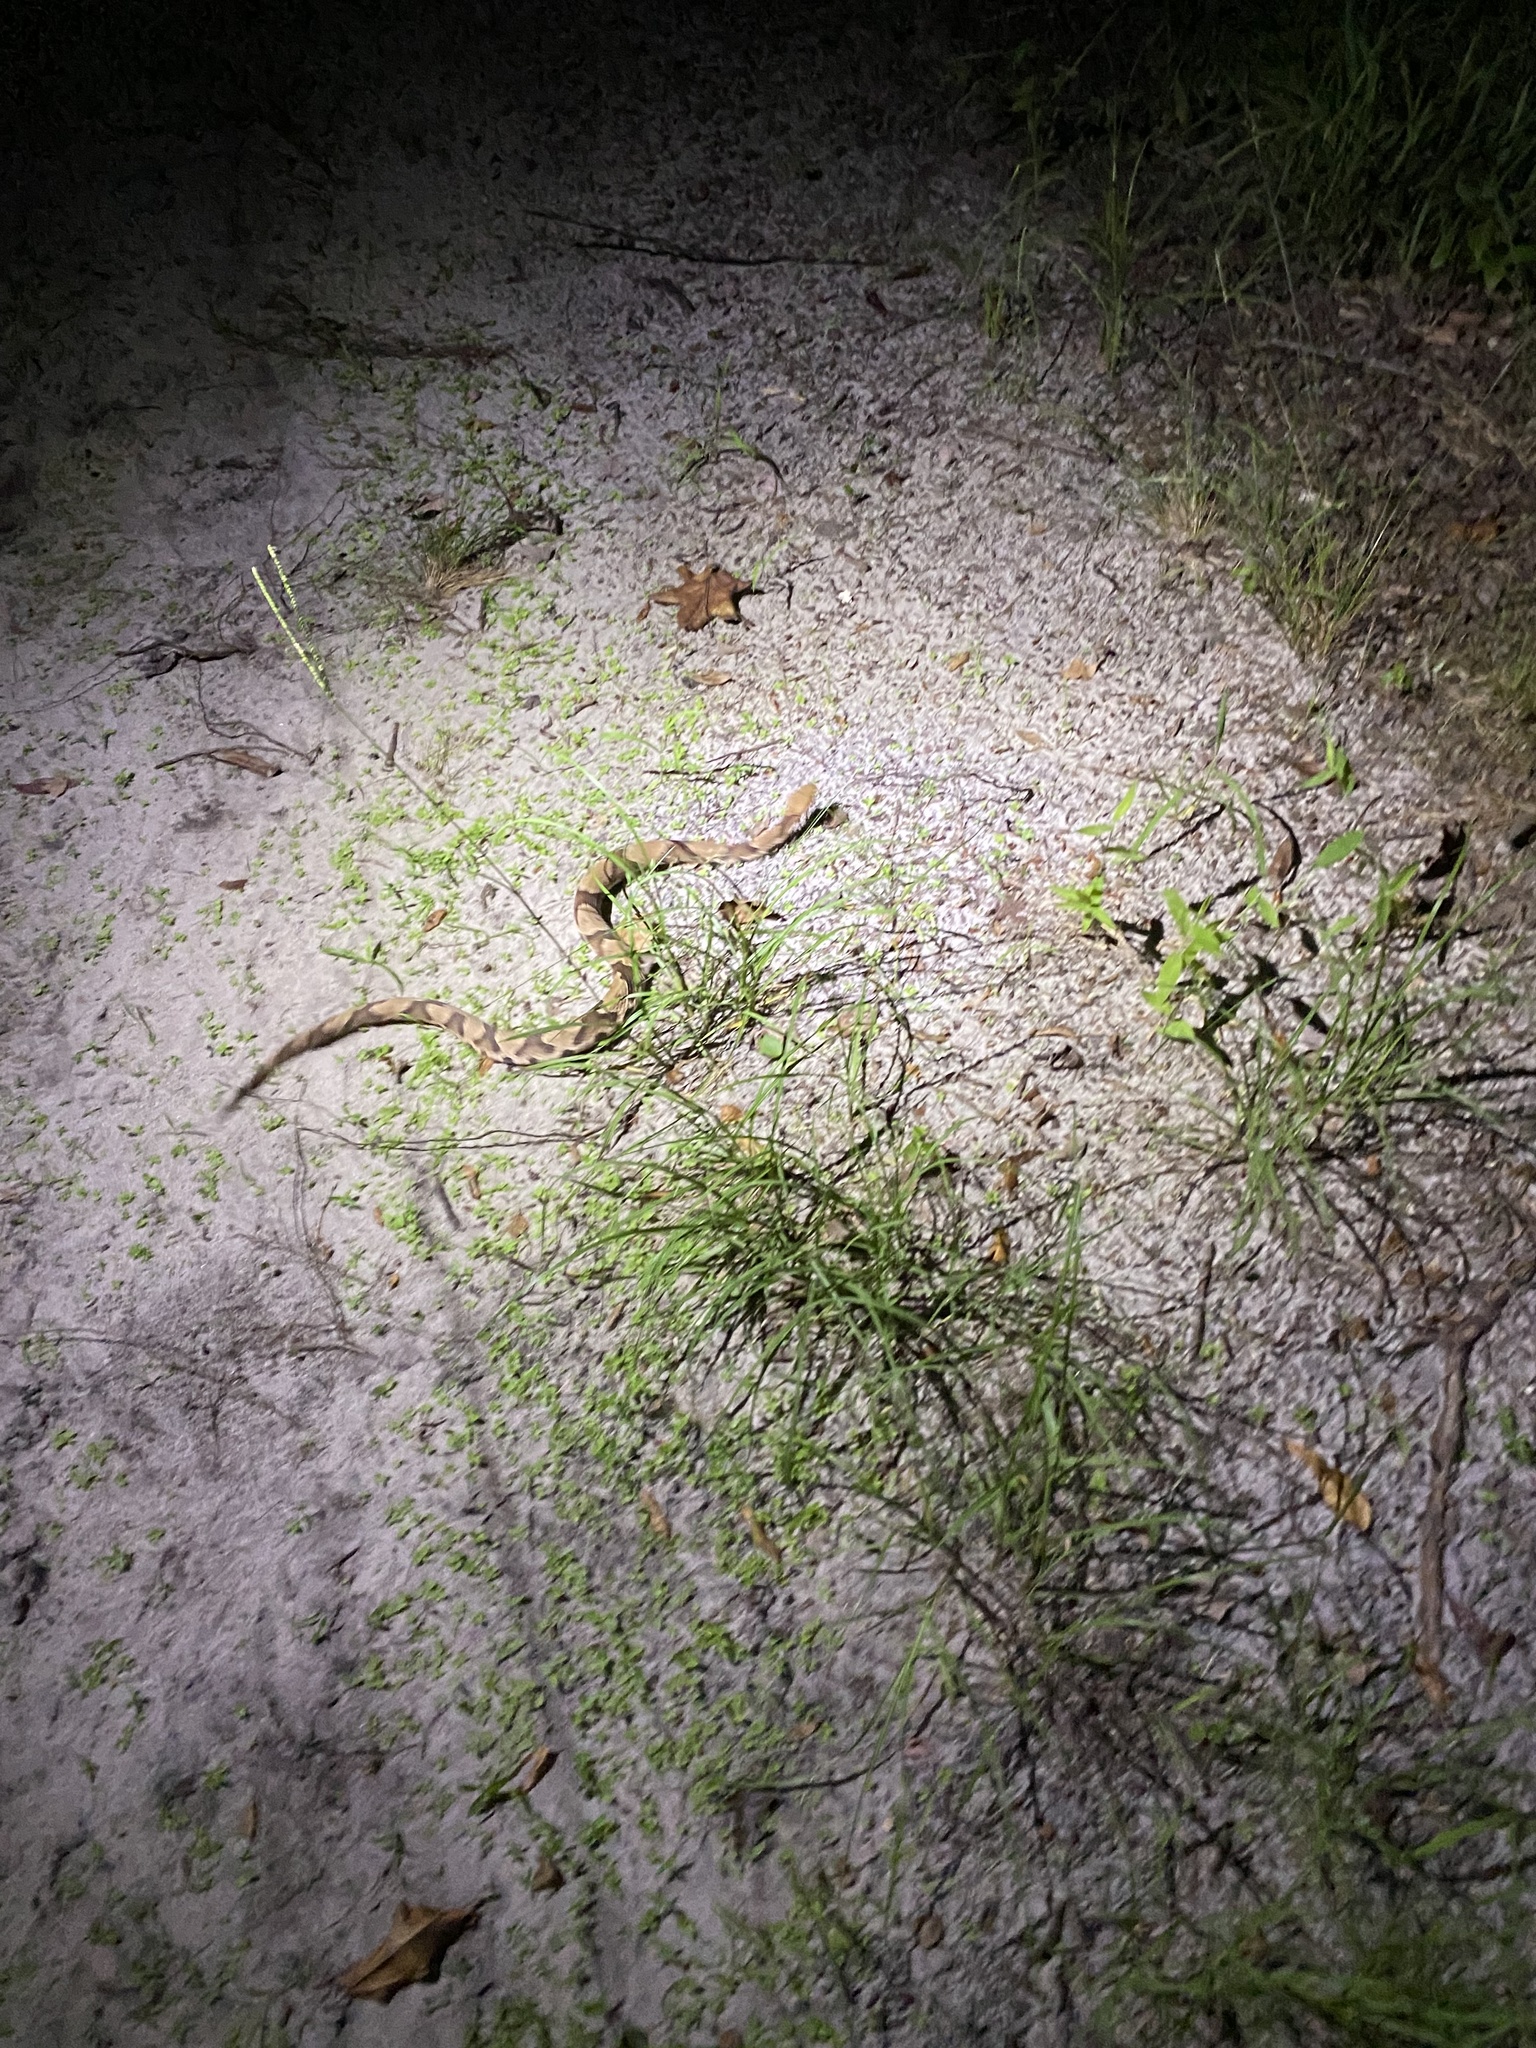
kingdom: Animalia
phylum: Chordata
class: Squamata
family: Viperidae
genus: Agkistrodon
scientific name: Agkistrodon contortrix
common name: Northern copperhead
